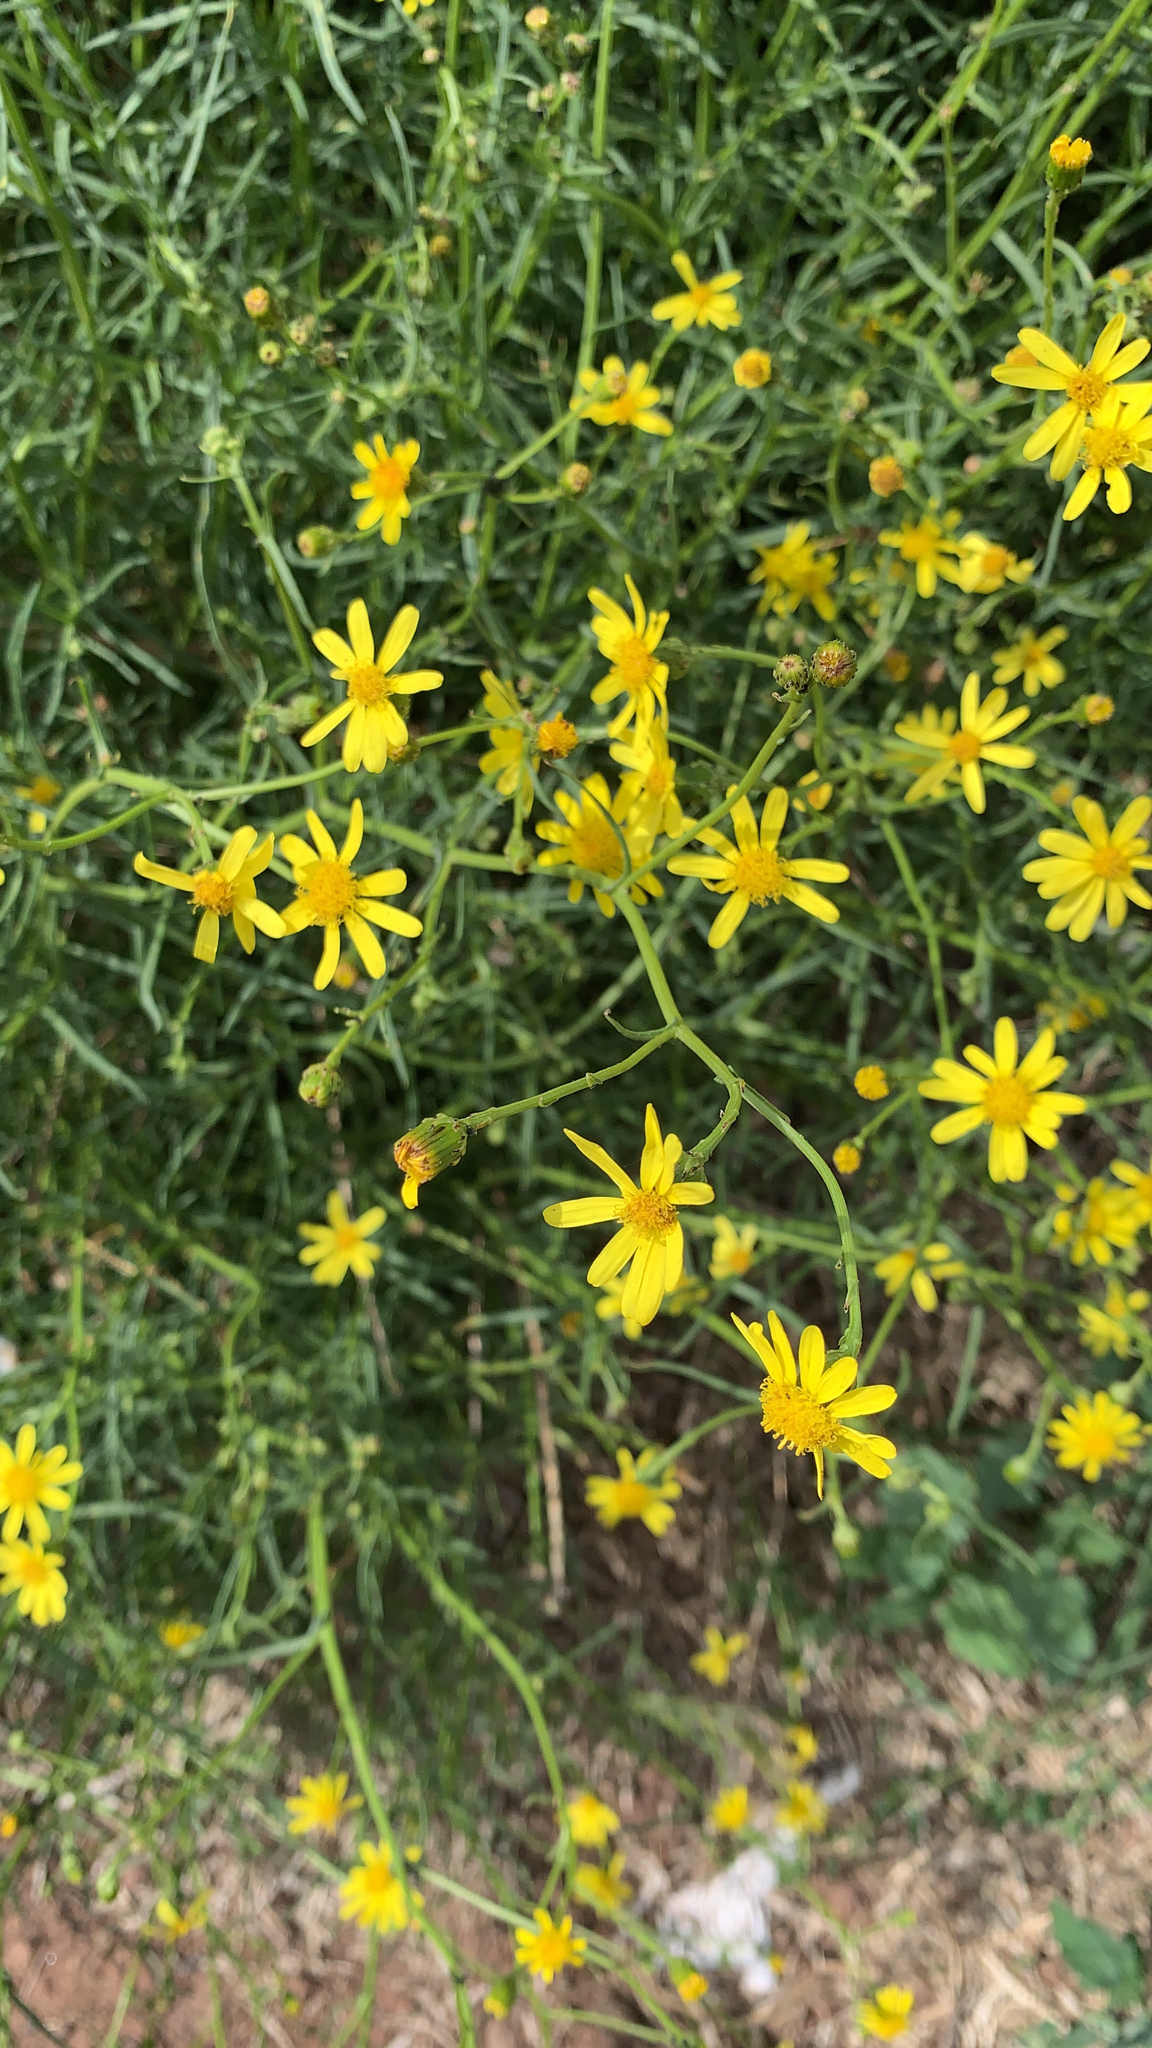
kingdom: Plantae
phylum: Tracheophyta
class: Magnoliopsida
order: Asterales
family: Asteraceae
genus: Senecio
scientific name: Senecio inaequidens
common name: Narrow-leaved ragwort
